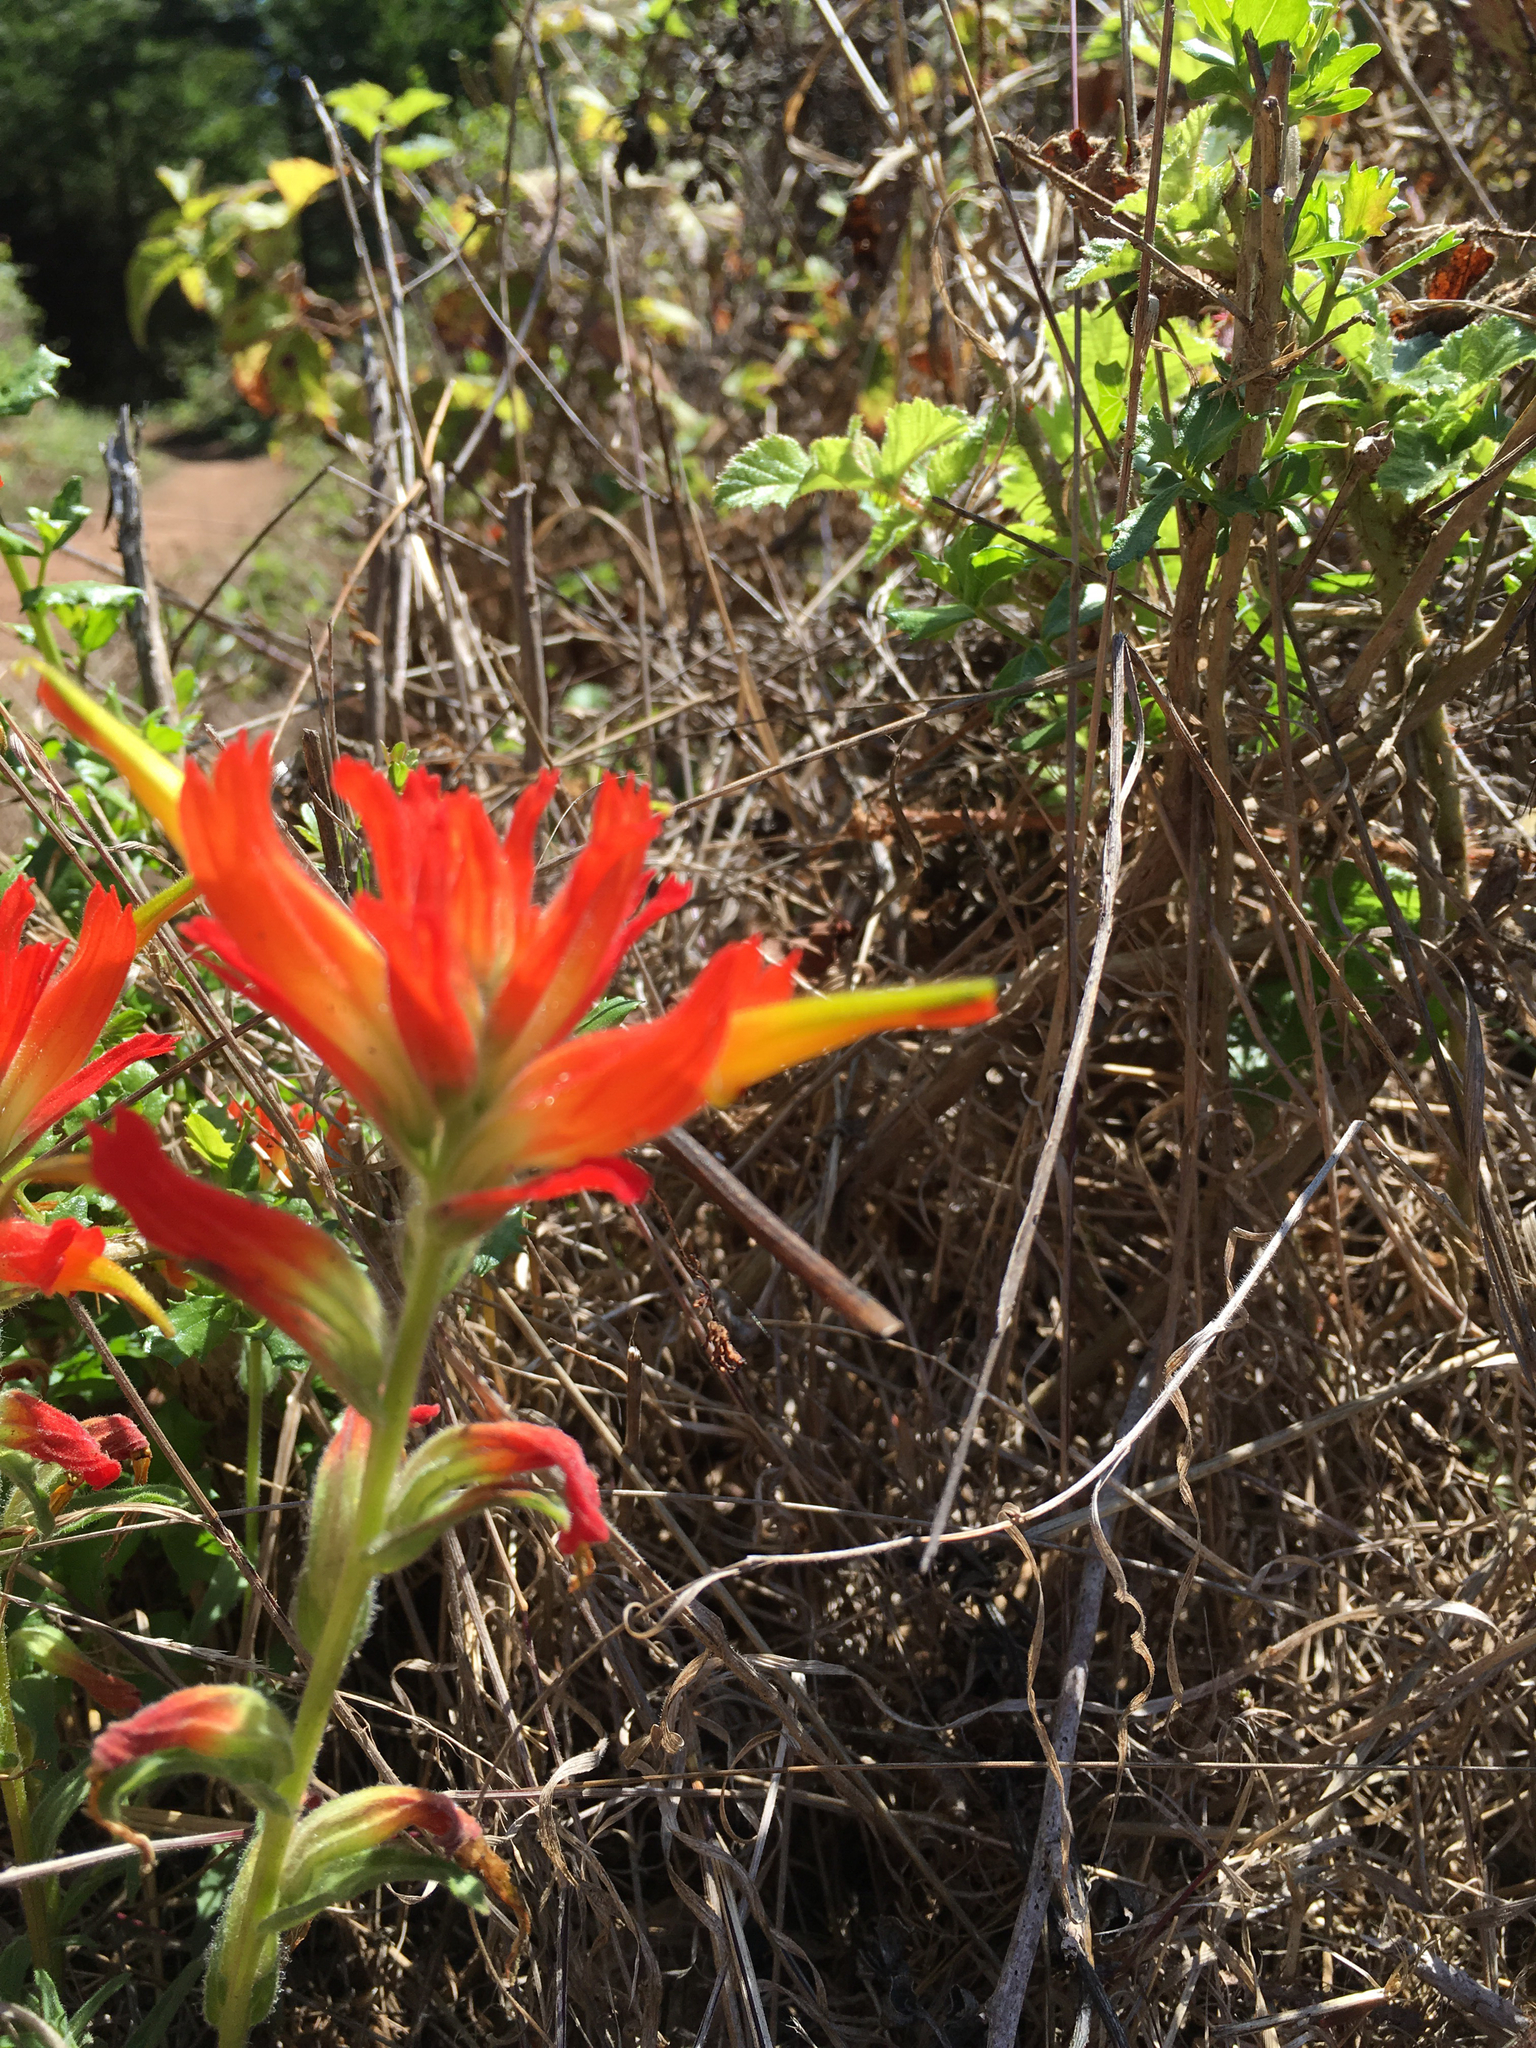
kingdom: Plantae
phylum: Tracheophyta
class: Magnoliopsida
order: Lamiales
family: Orobanchaceae
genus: Castilleja
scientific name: Castilleja affinis
